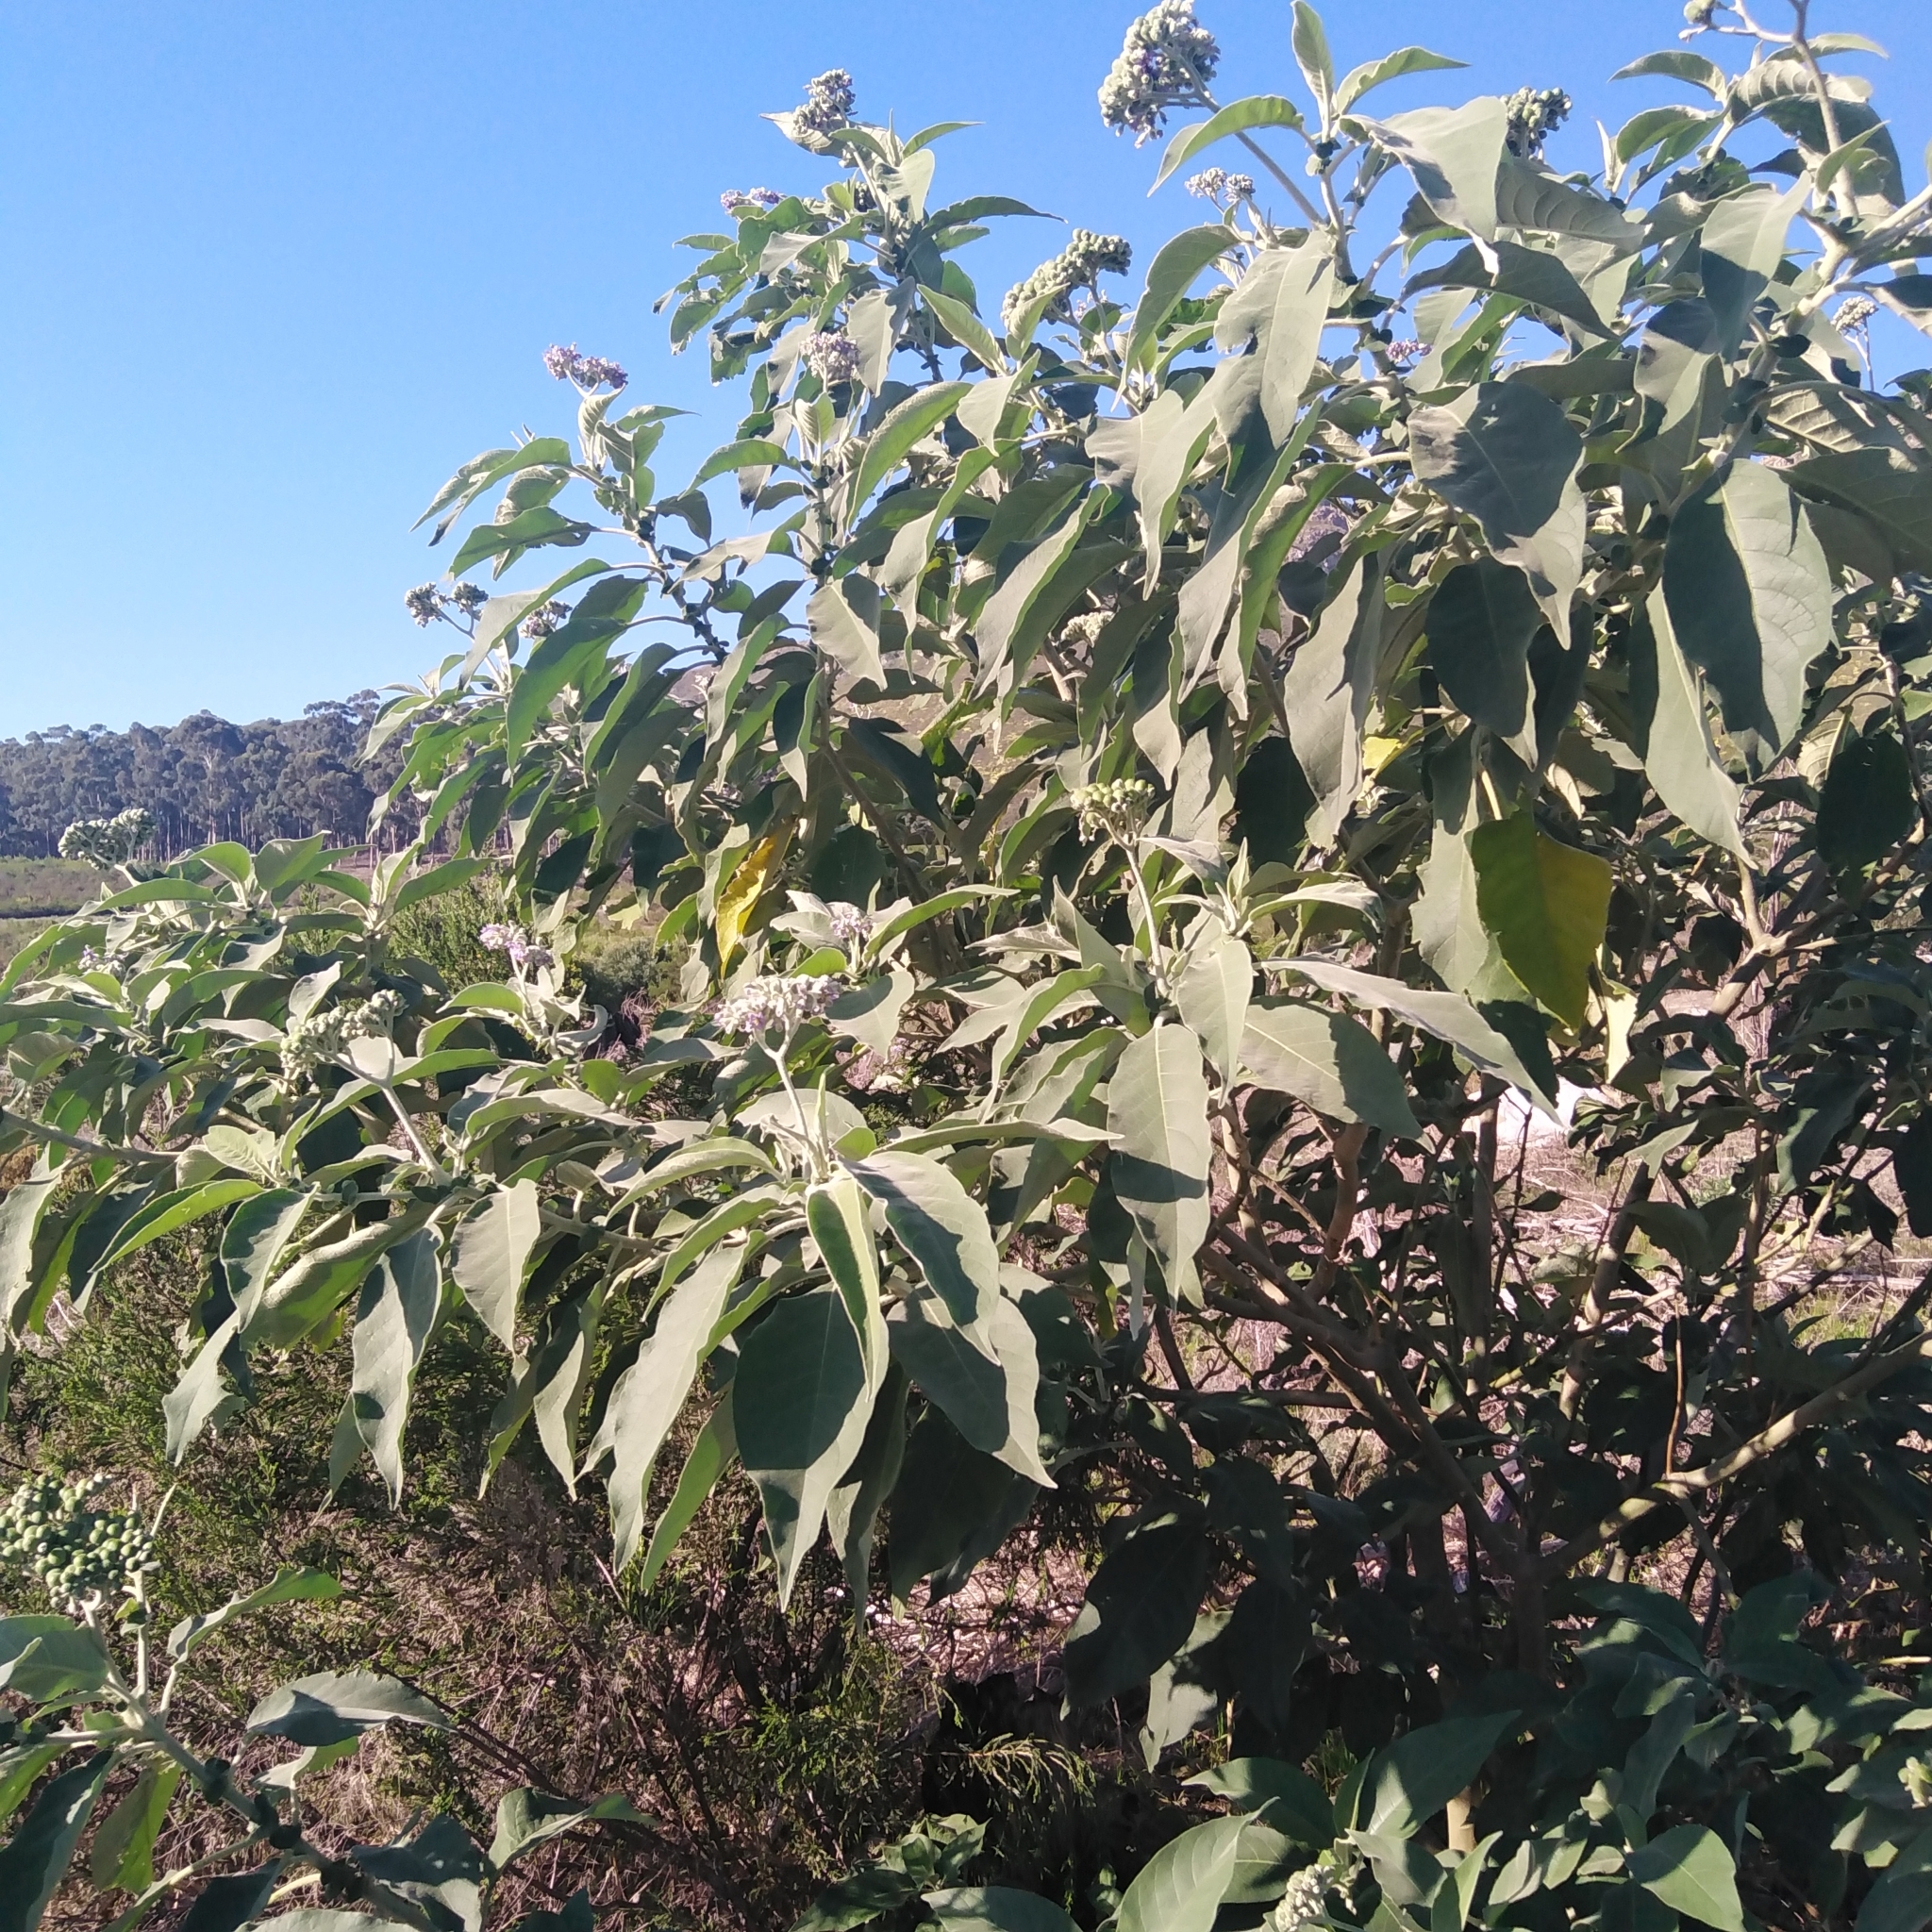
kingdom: Plantae
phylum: Tracheophyta
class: Magnoliopsida
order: Solanales
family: Solanaceae
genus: Solanum
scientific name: Solanum mauritianum
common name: Earleaf nightshade
